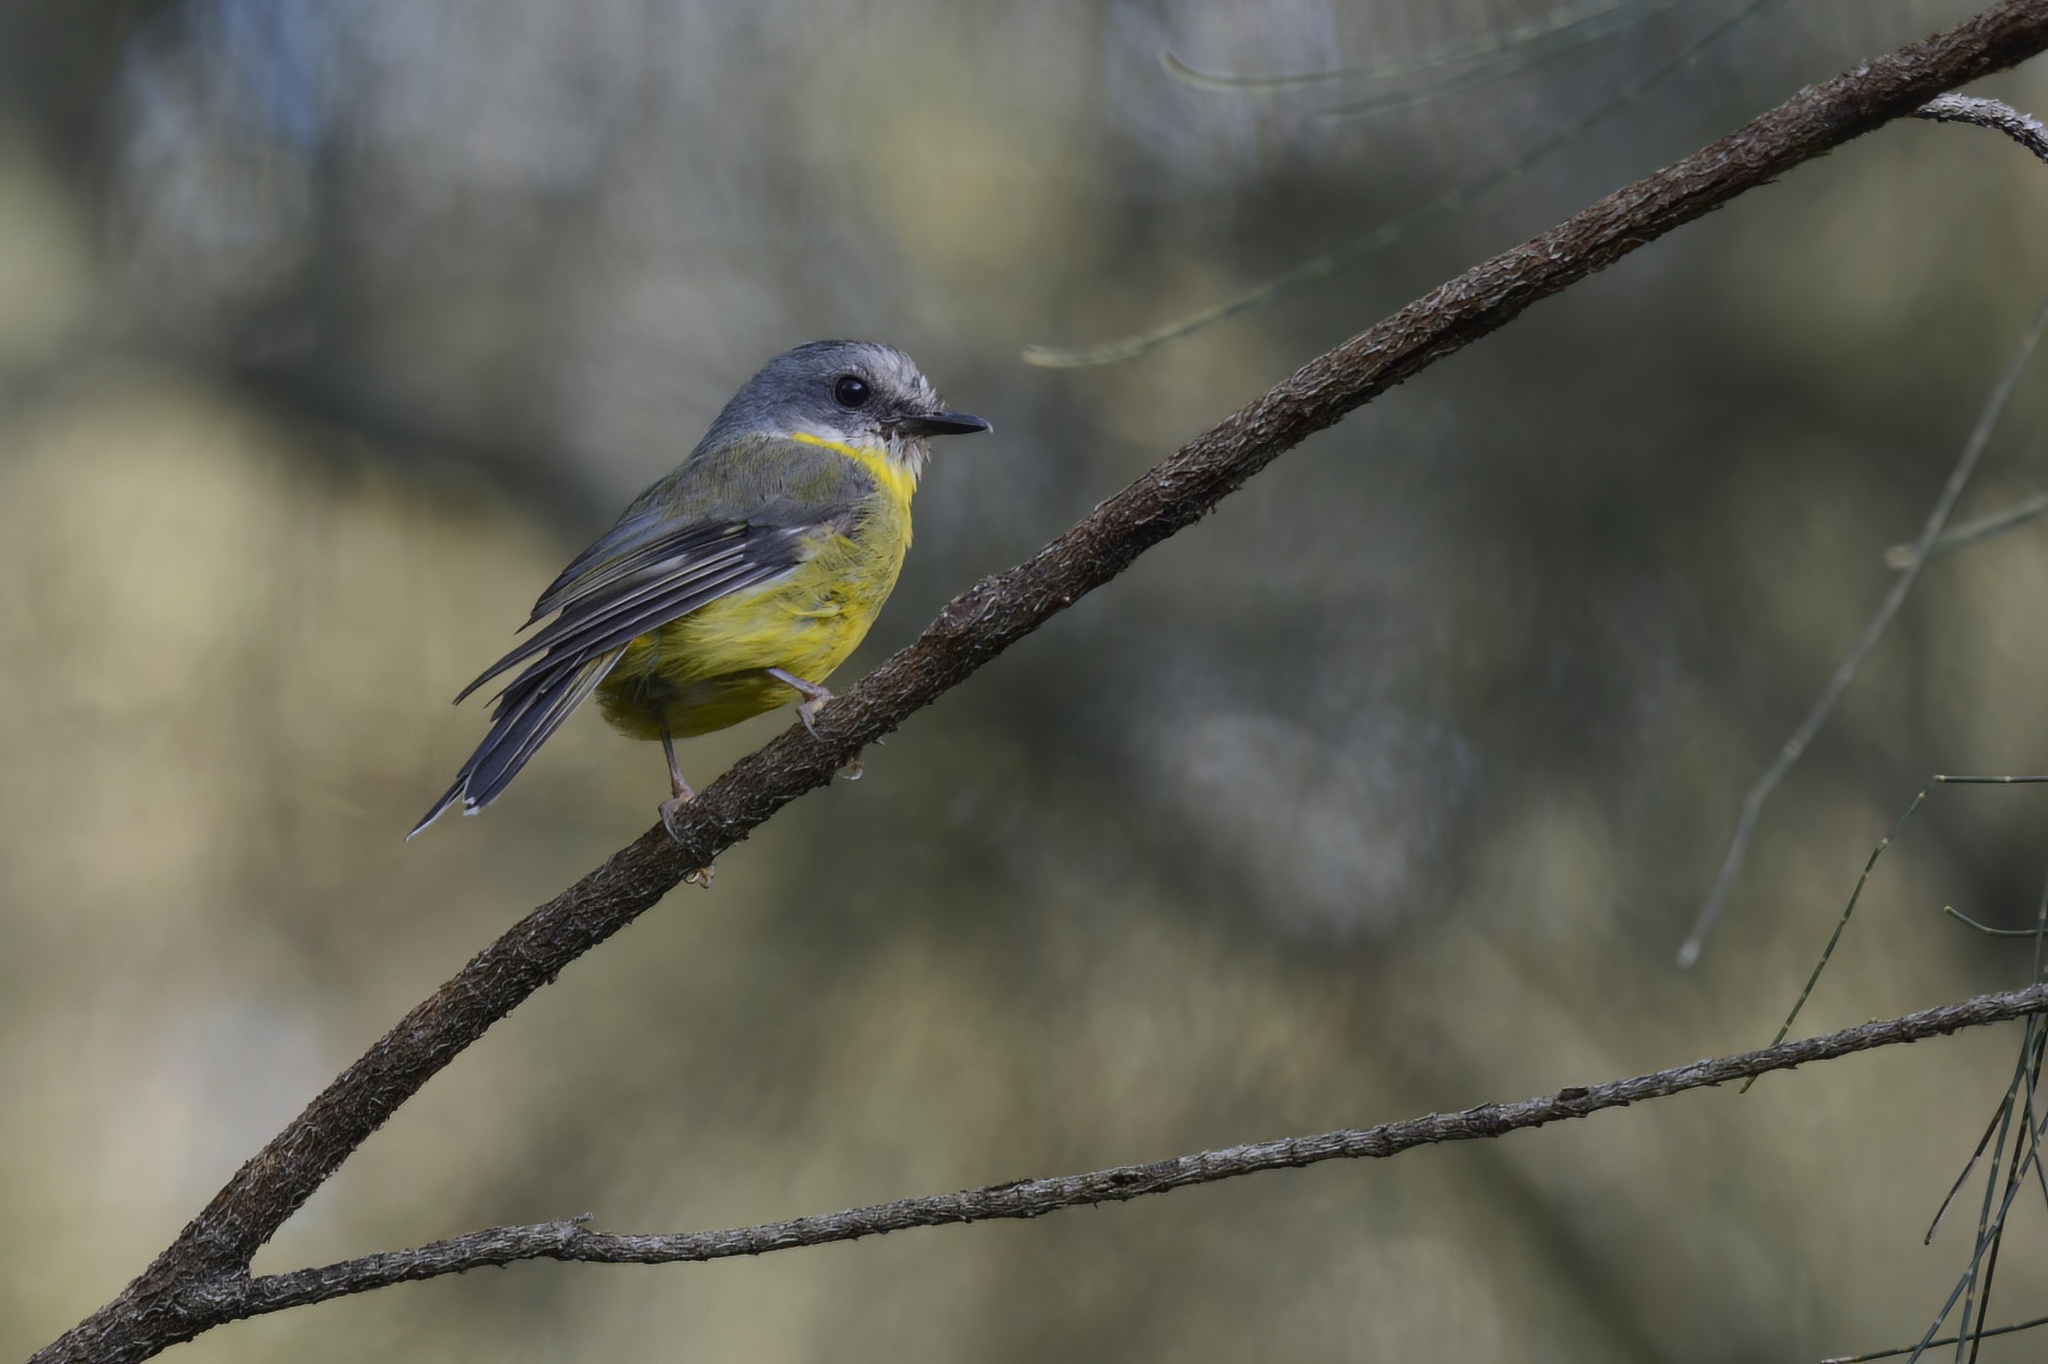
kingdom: Animalia
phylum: Chordata
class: Aves
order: Passeriformes
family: Petroicidae
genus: Eopsaltria
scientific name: Eopsaltria australis
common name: Eastern yellow robin
